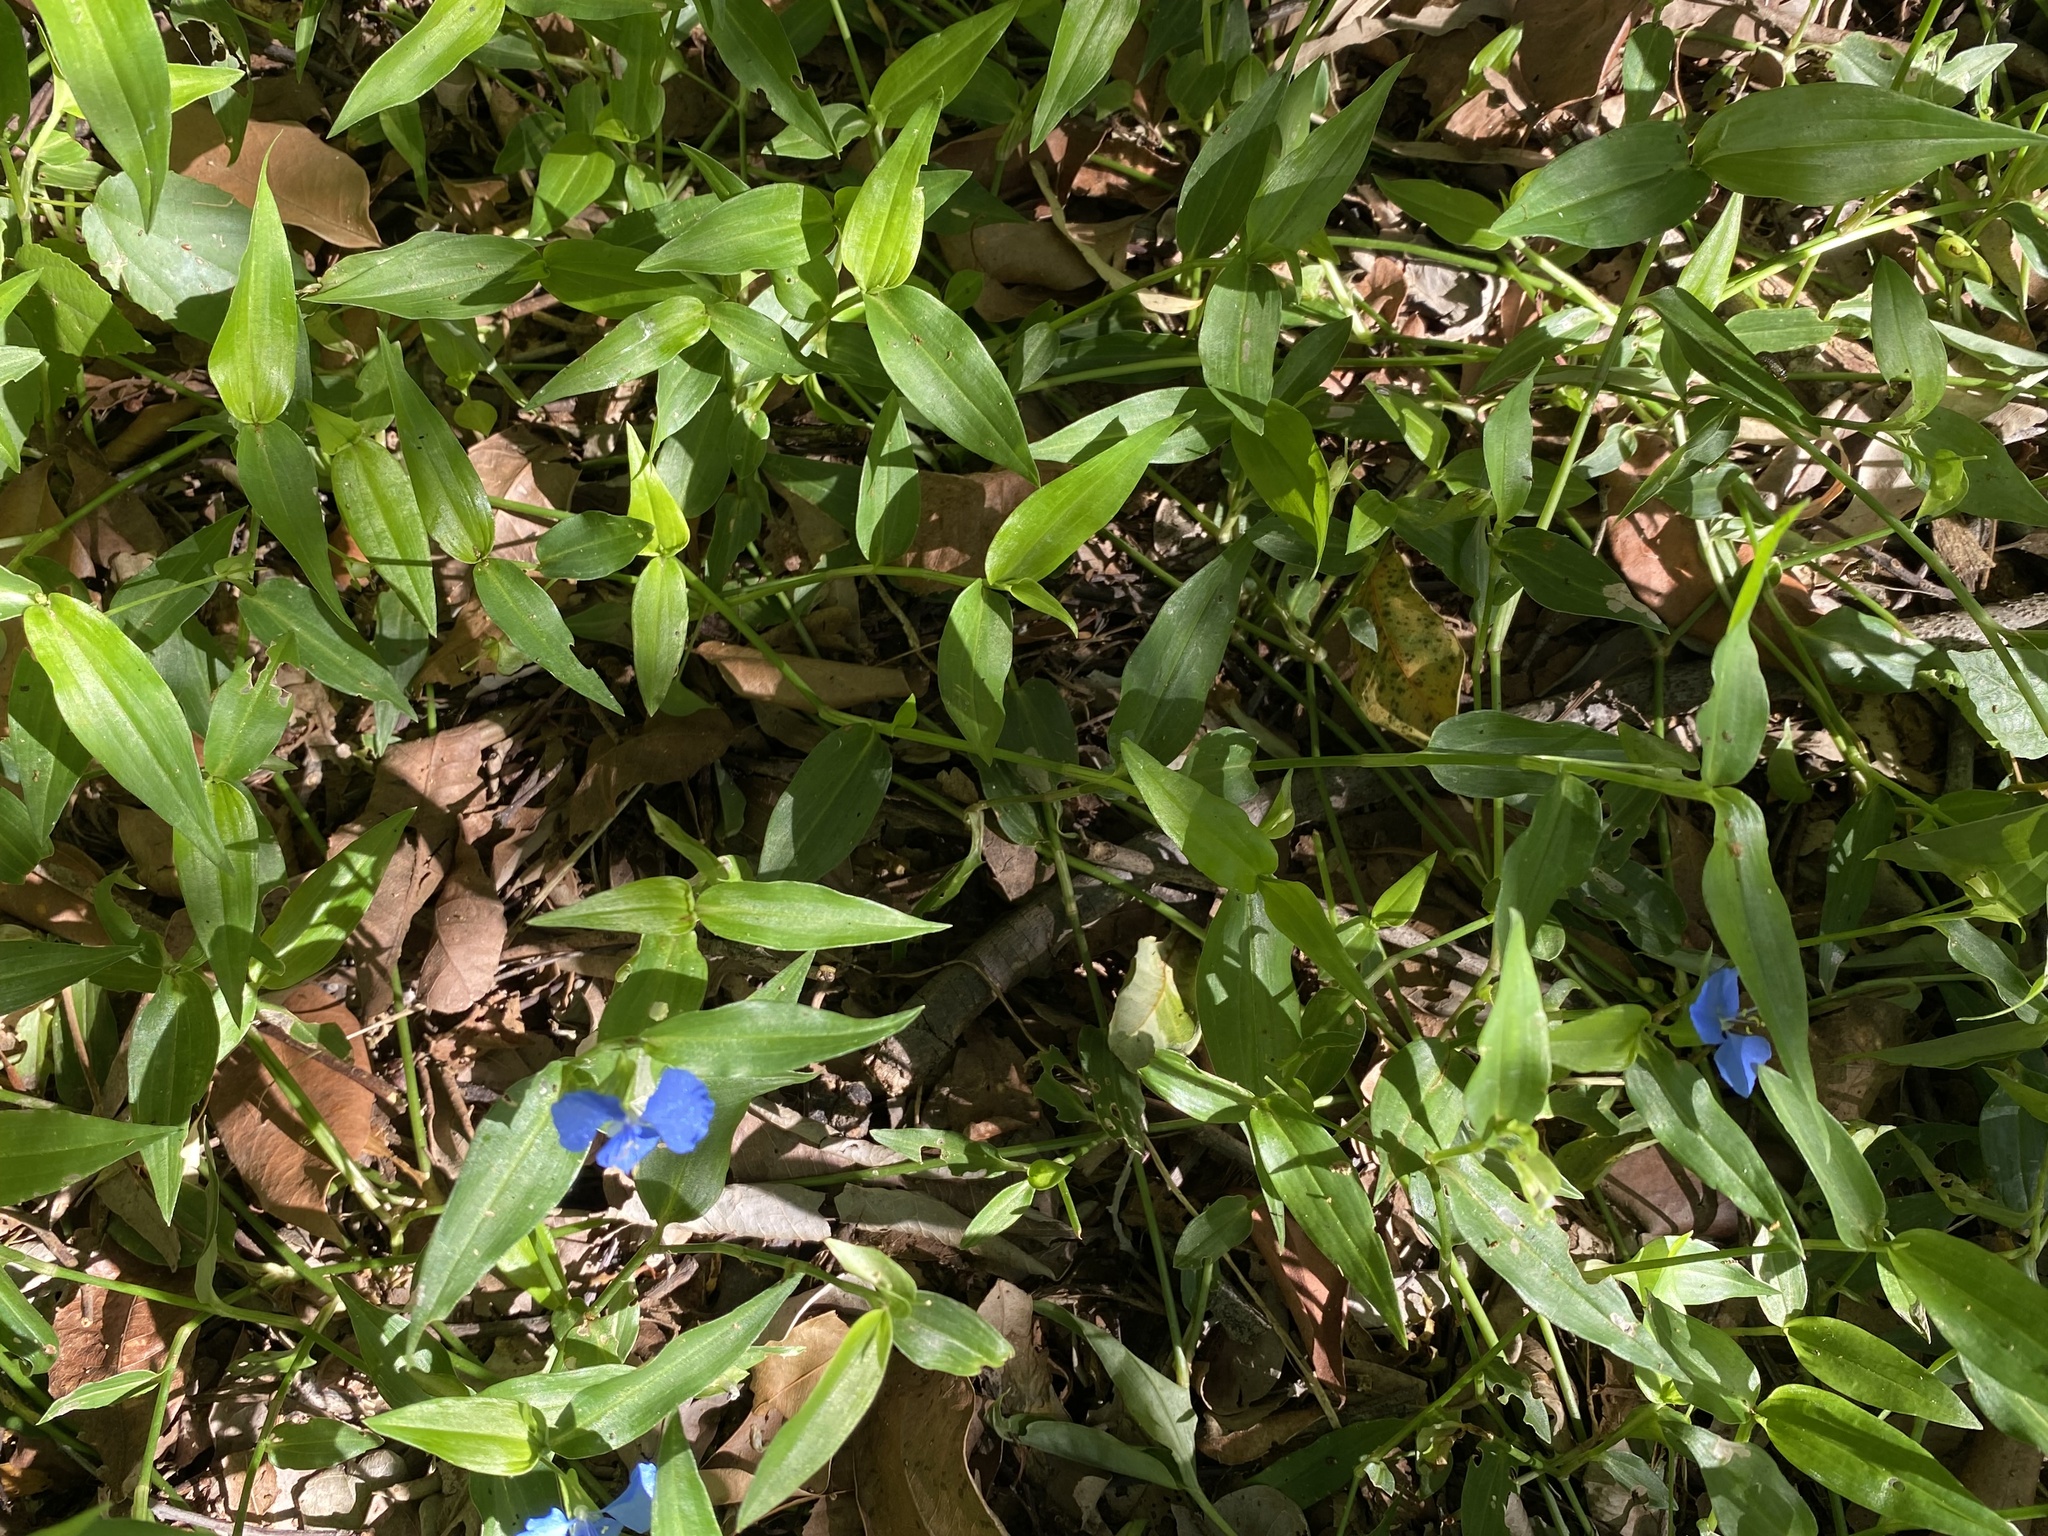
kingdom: Plantae
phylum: Tracheophyta
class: Liliopsida
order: Commelinales
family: Commelinaceae
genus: Commelina
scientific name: Commelina cyanea
